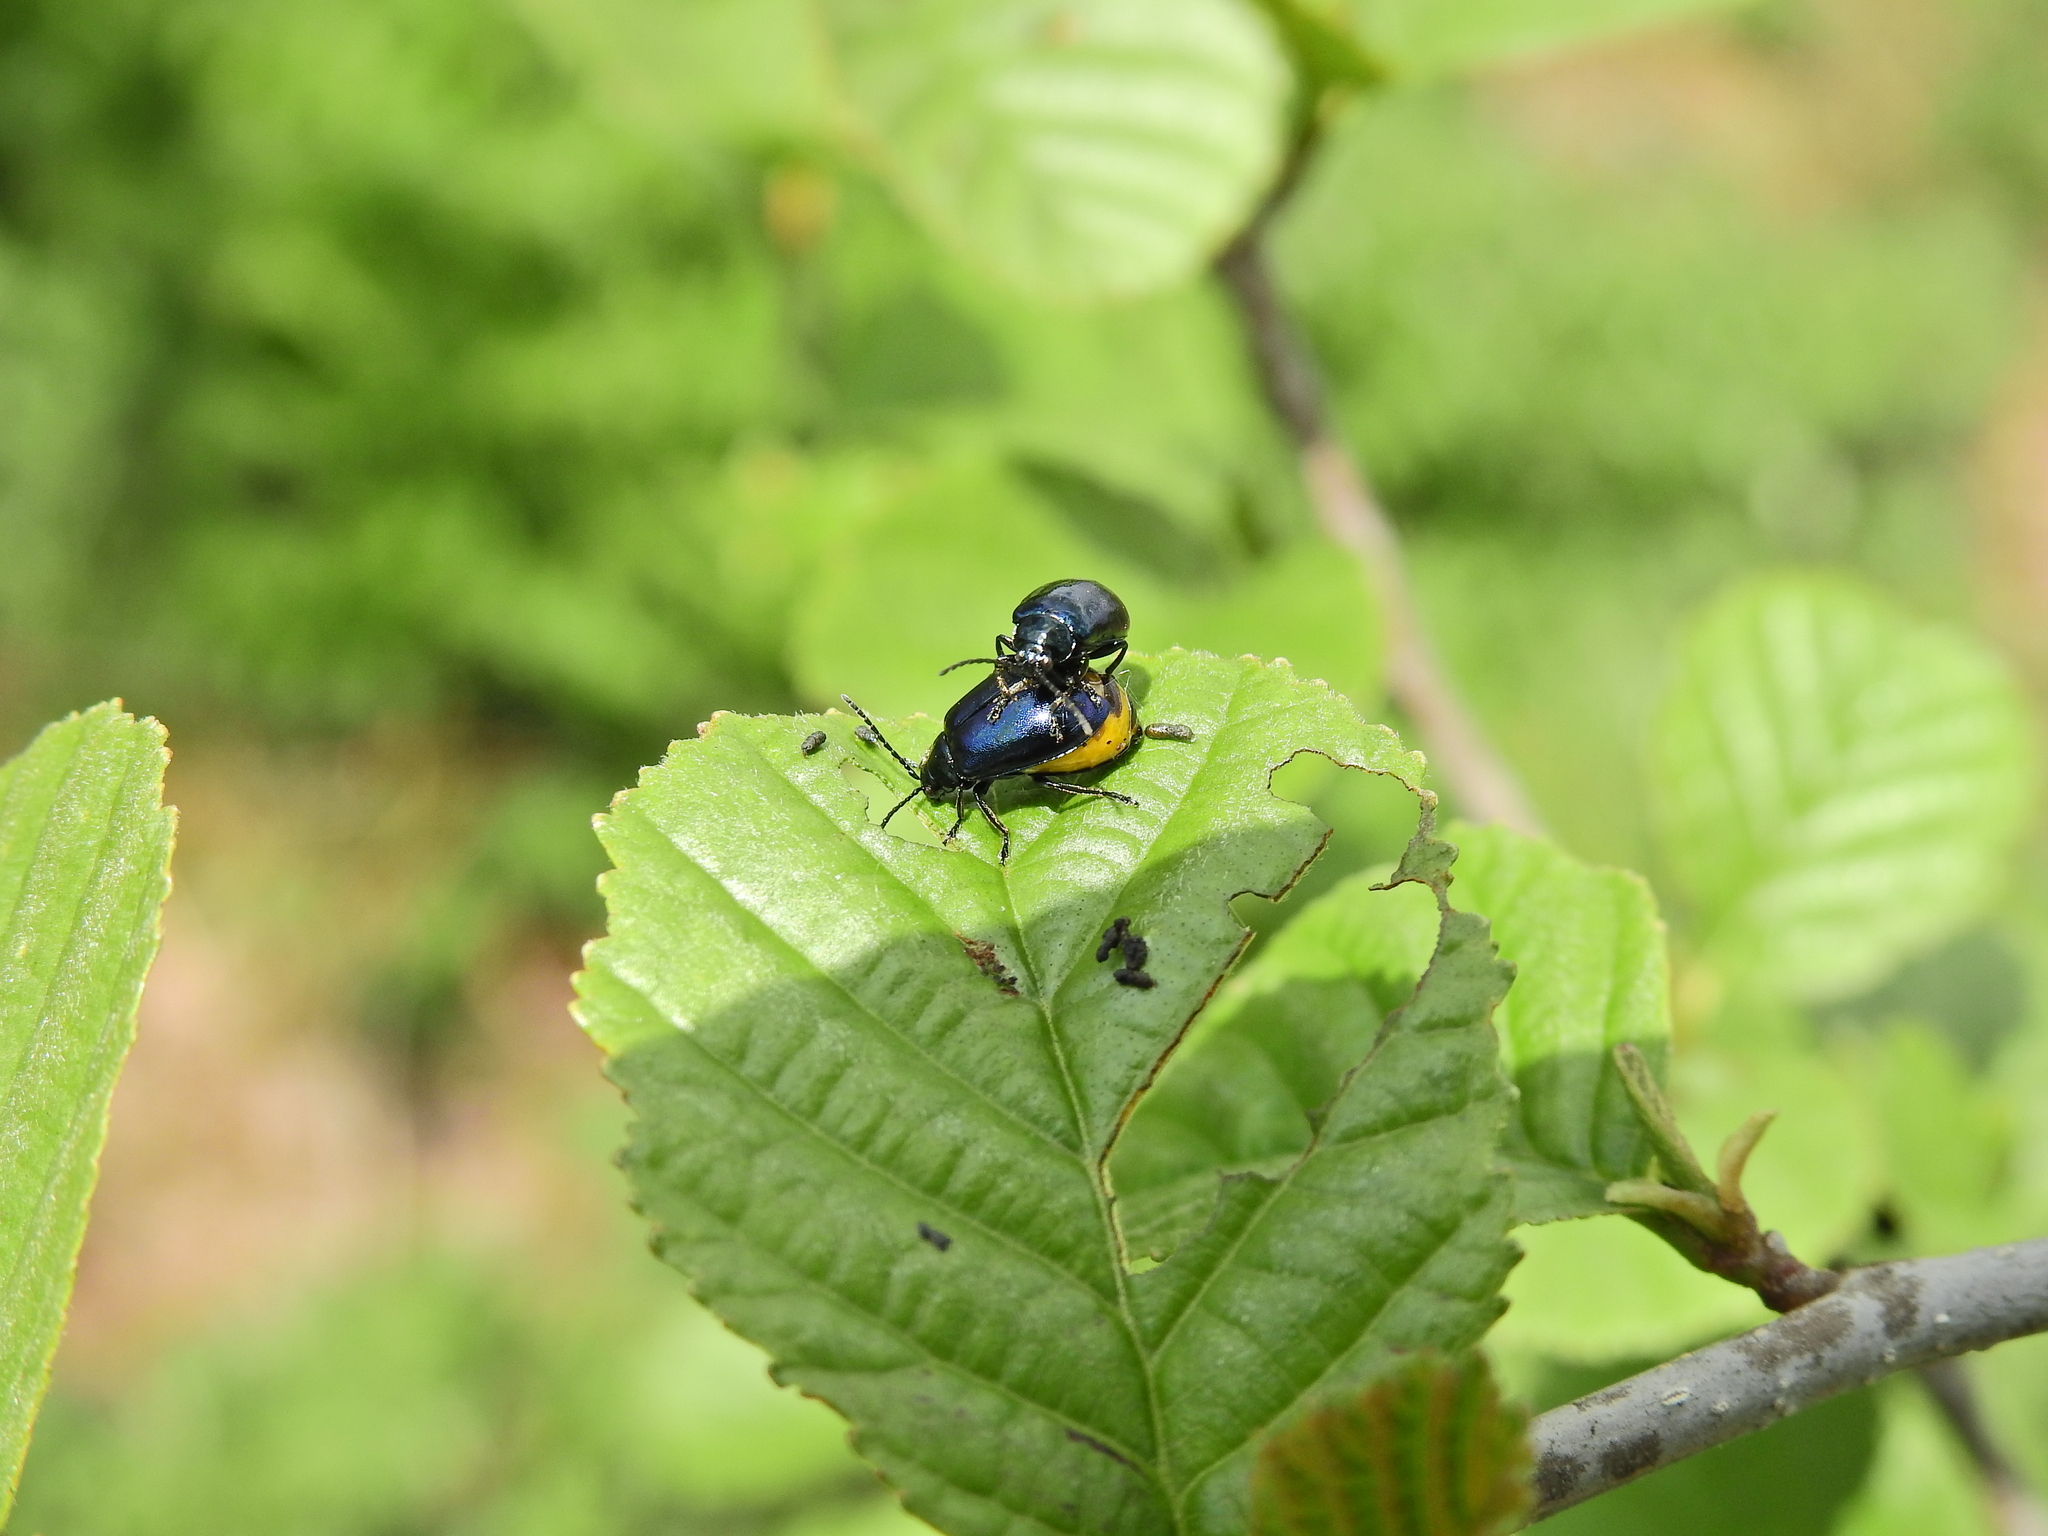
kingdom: Animalia
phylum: Arthropoda
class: Insecta
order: Coleoptera
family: Chrysomelidae
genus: Agelastica
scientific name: Agelastica alni
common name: Alder leaf beetle
